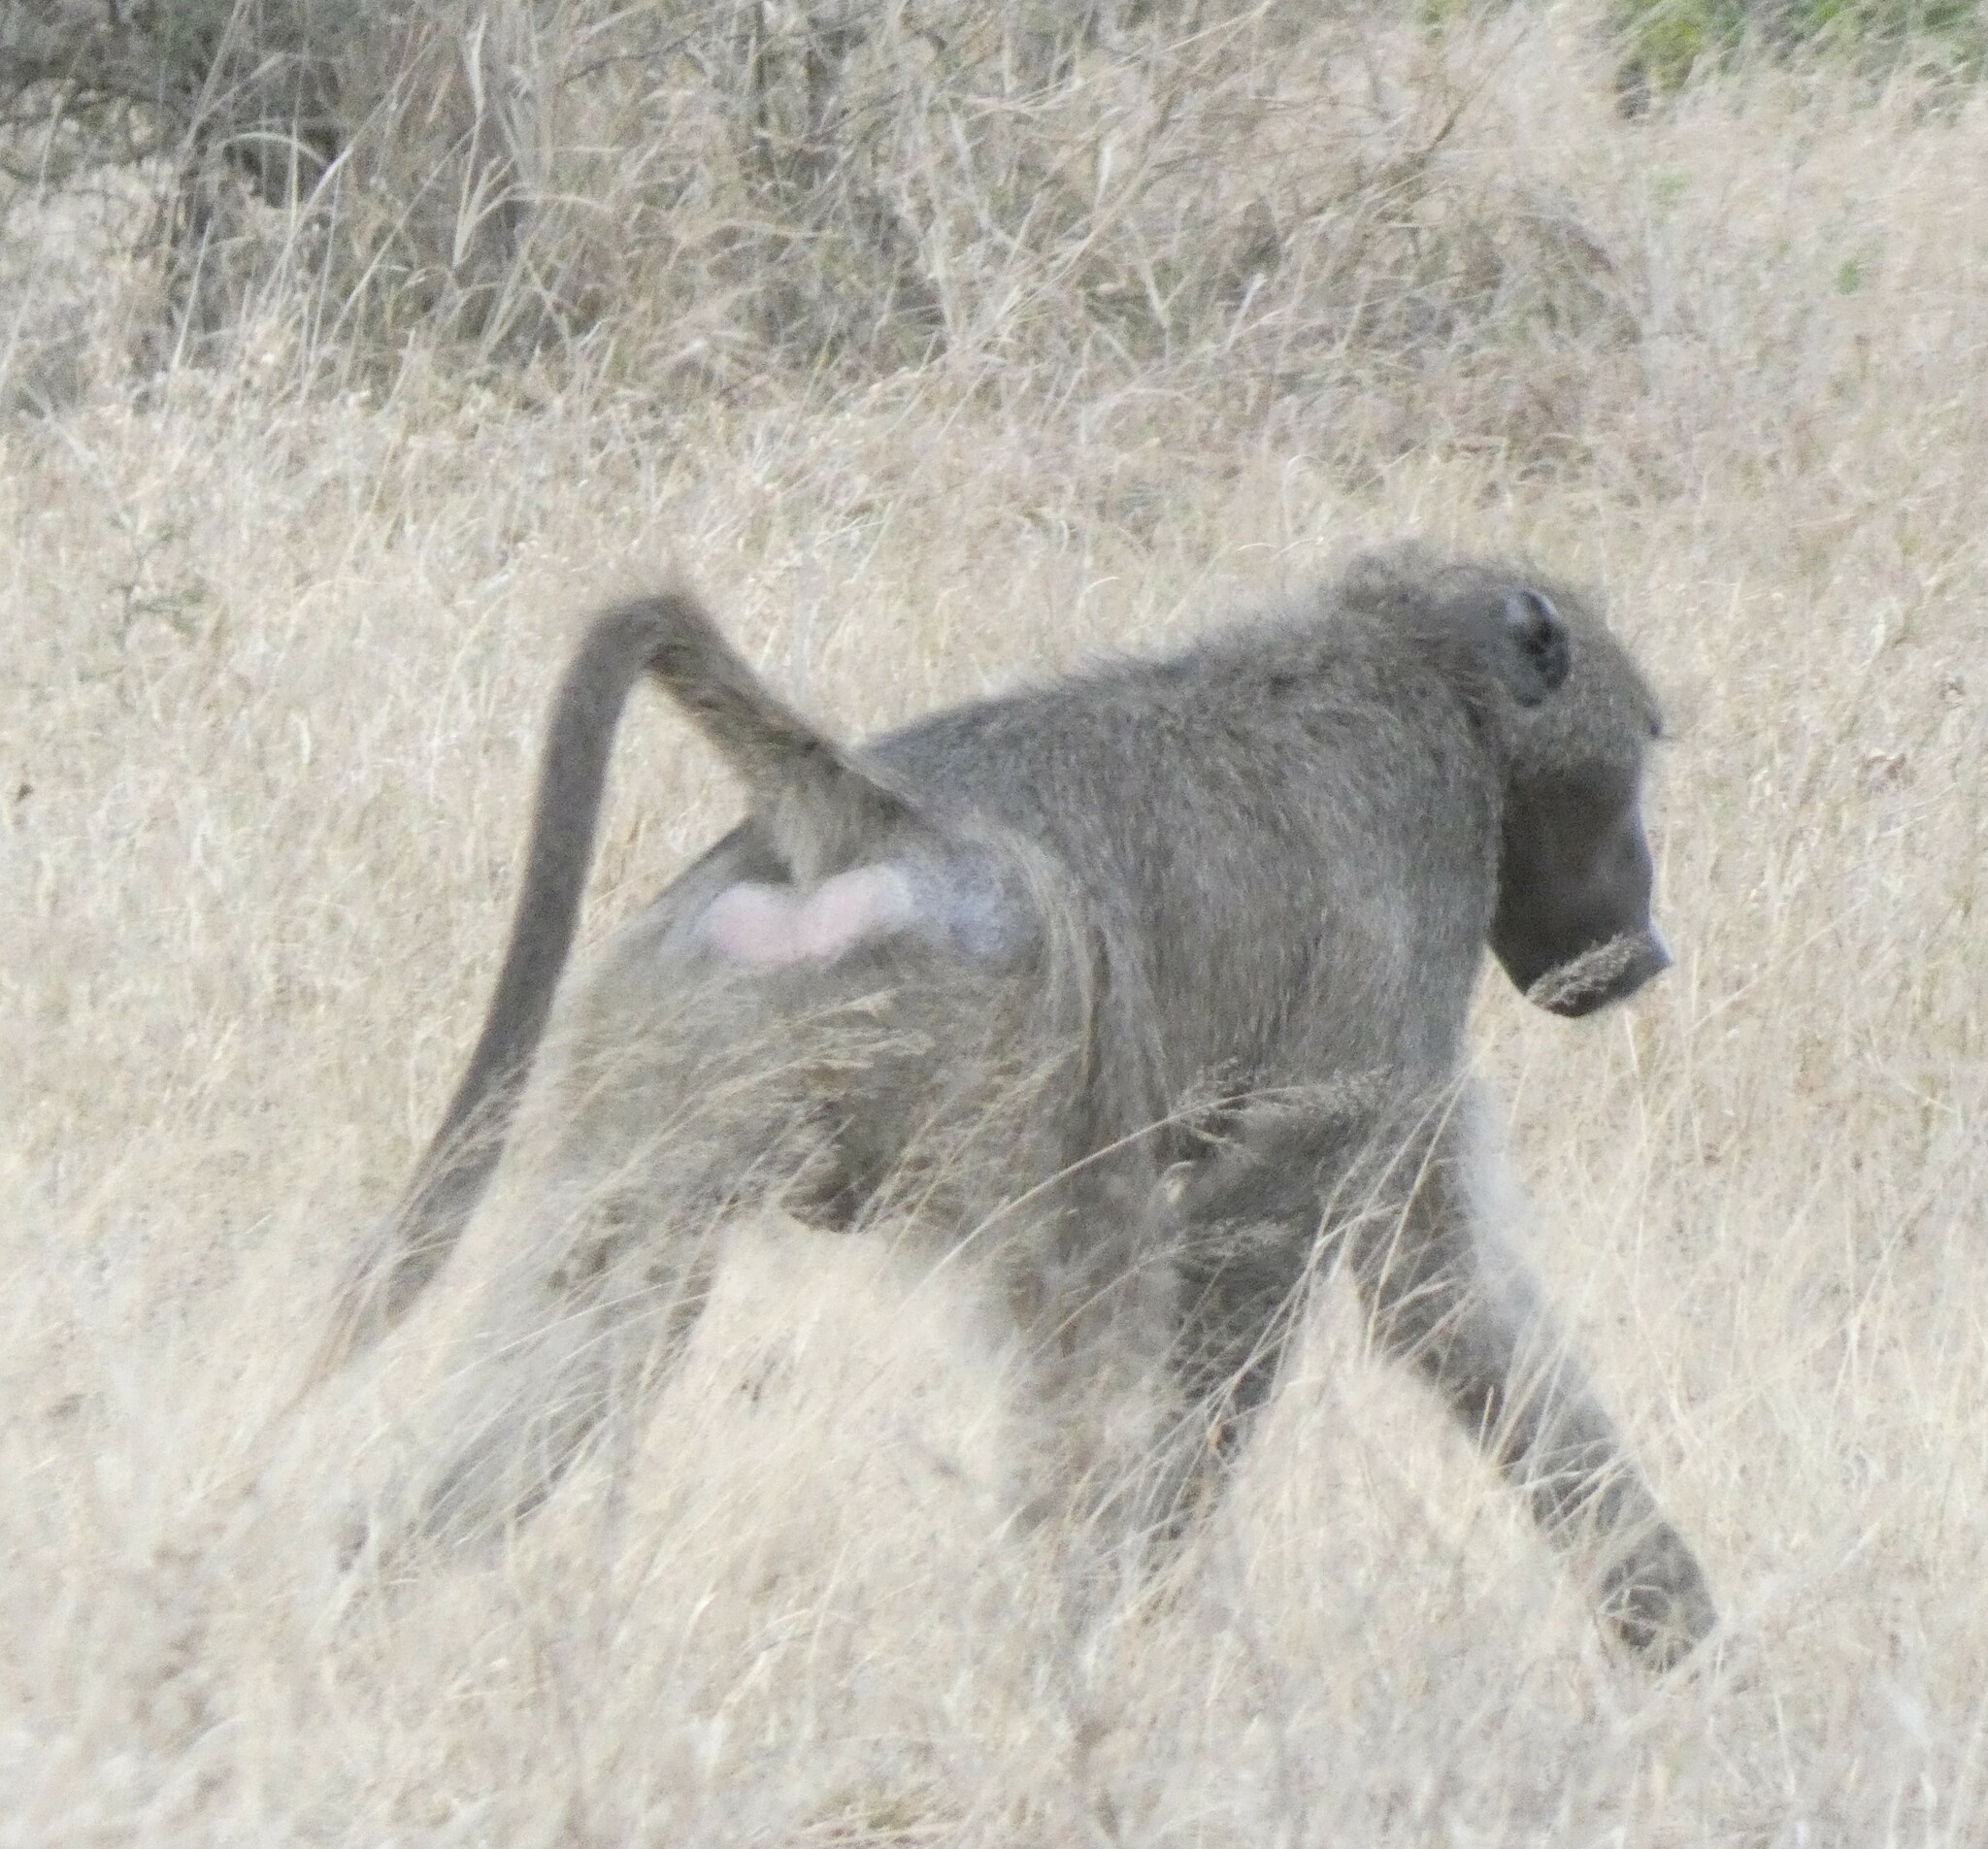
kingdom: Animalia
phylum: Chordata
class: Mammalia
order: Primates
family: Cercopithecidae
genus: Papio
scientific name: Papio ursinus
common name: Chacma baboon
